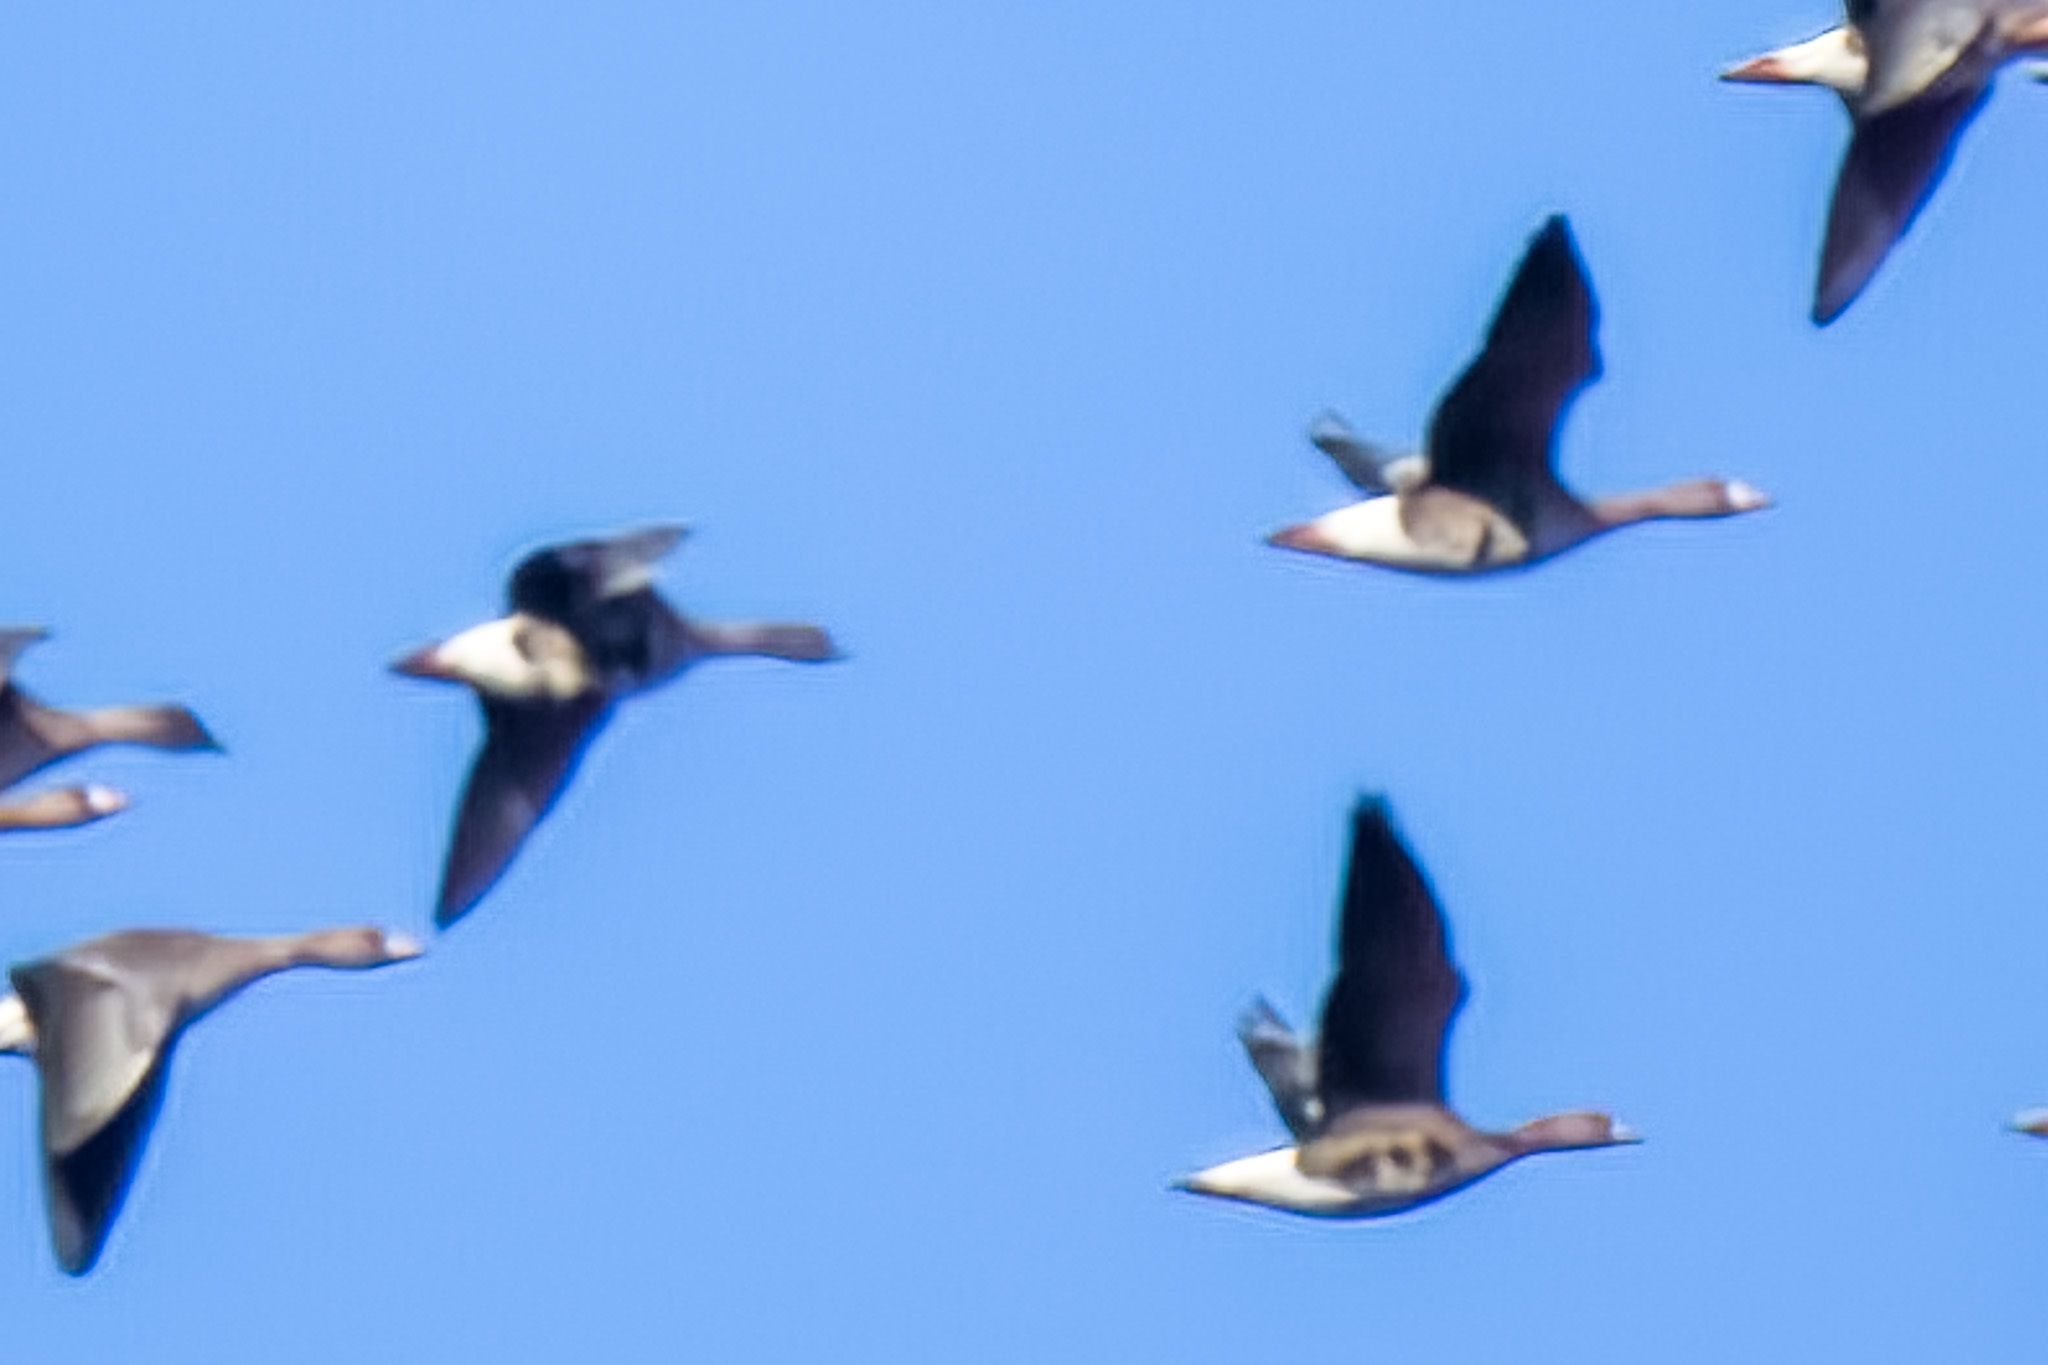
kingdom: Animalia
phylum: Chordata
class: Aves
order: Anseriformes
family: Anatidae
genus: Anser
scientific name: Anser albifrons
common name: Greater white-fronted goose
